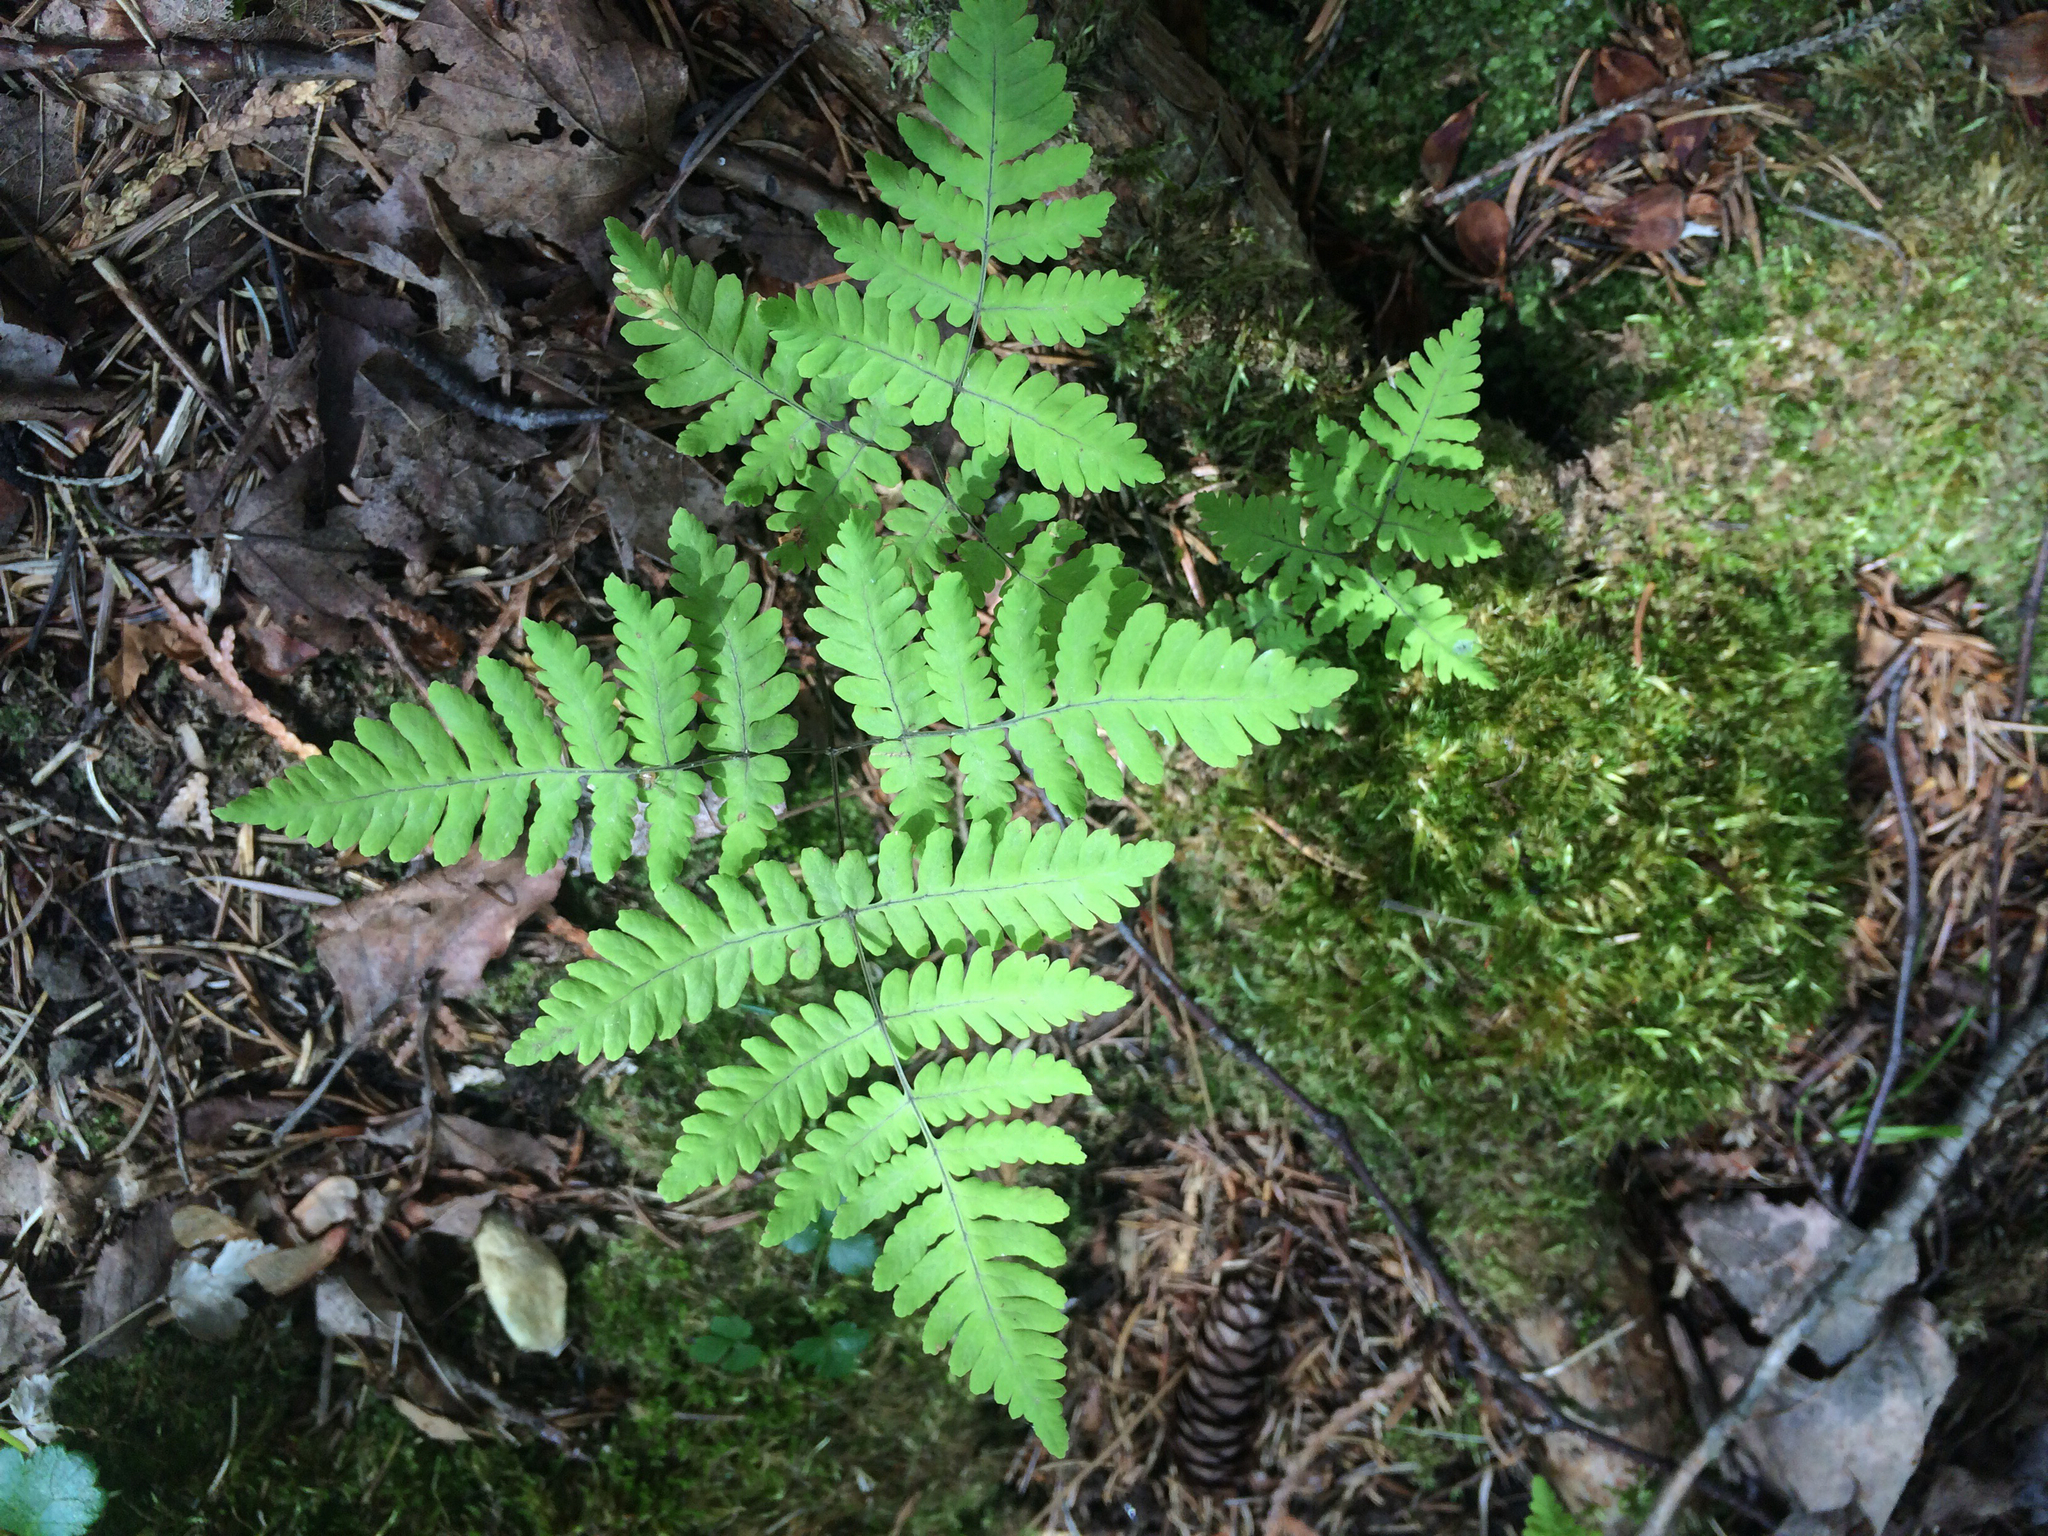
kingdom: Plantae
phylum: Tracheophyta
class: Polypodiopsida
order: Polypodiales
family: Cystopteridaceae
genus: Gymnocarpium
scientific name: Gymnocarpium dryopteris
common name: Oak fern
